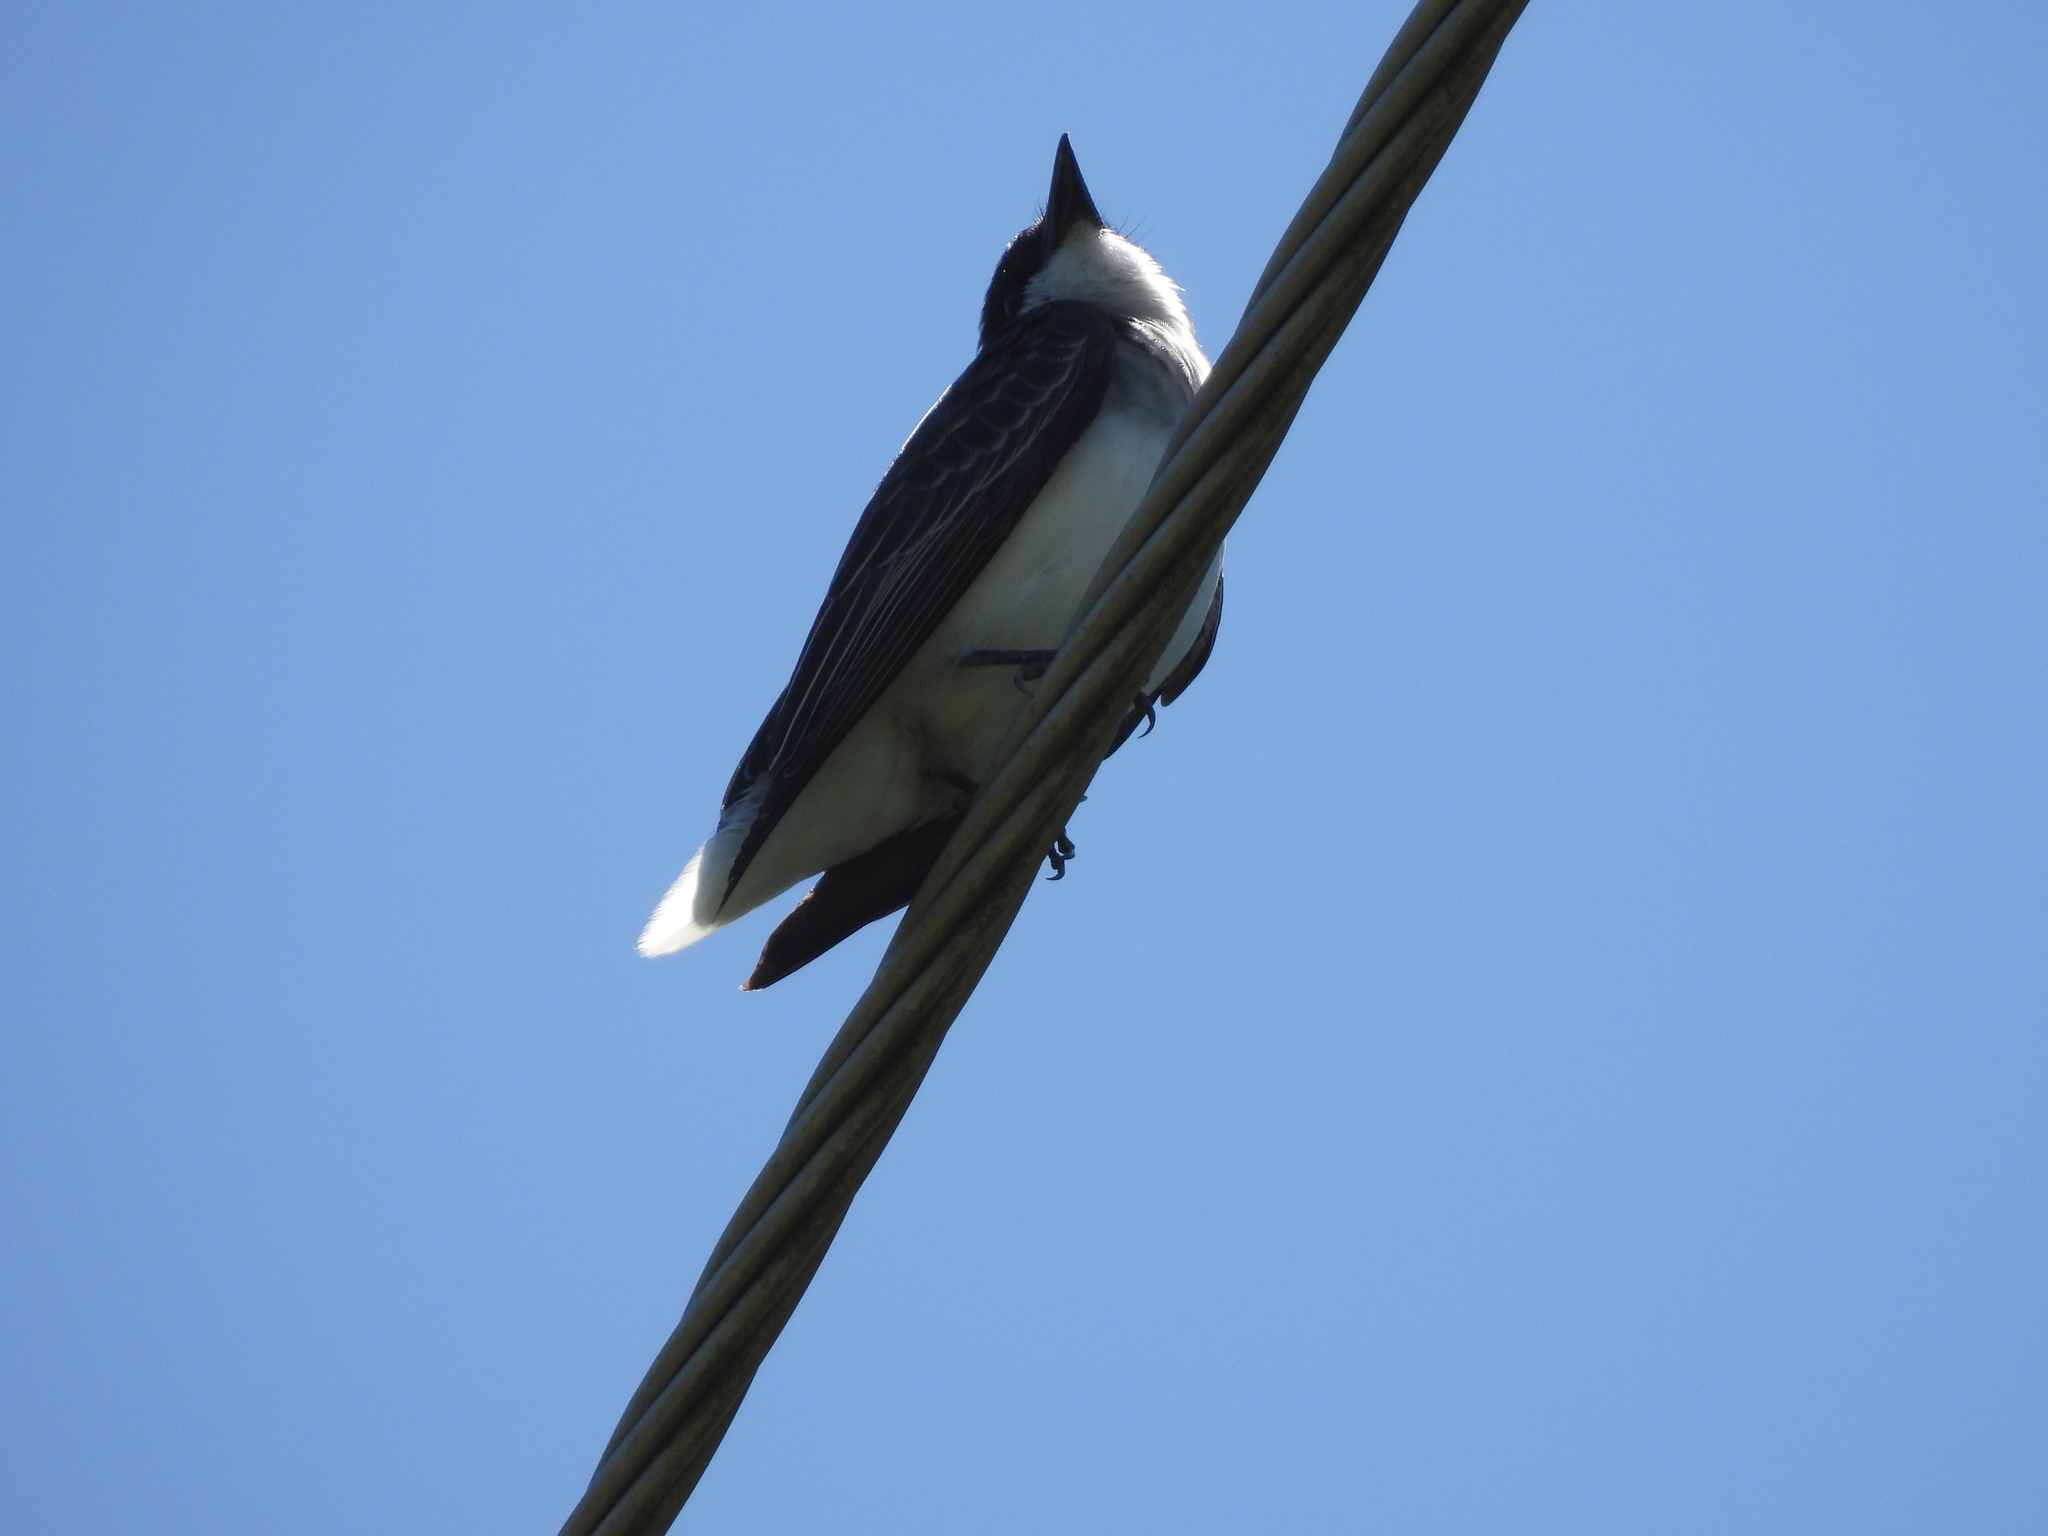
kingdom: Animalia
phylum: Chordata
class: Aves
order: Passeriformes
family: Tyrannidae
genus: Tyrannus
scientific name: Tyrannus tyrannus
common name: Eastern kingbird
